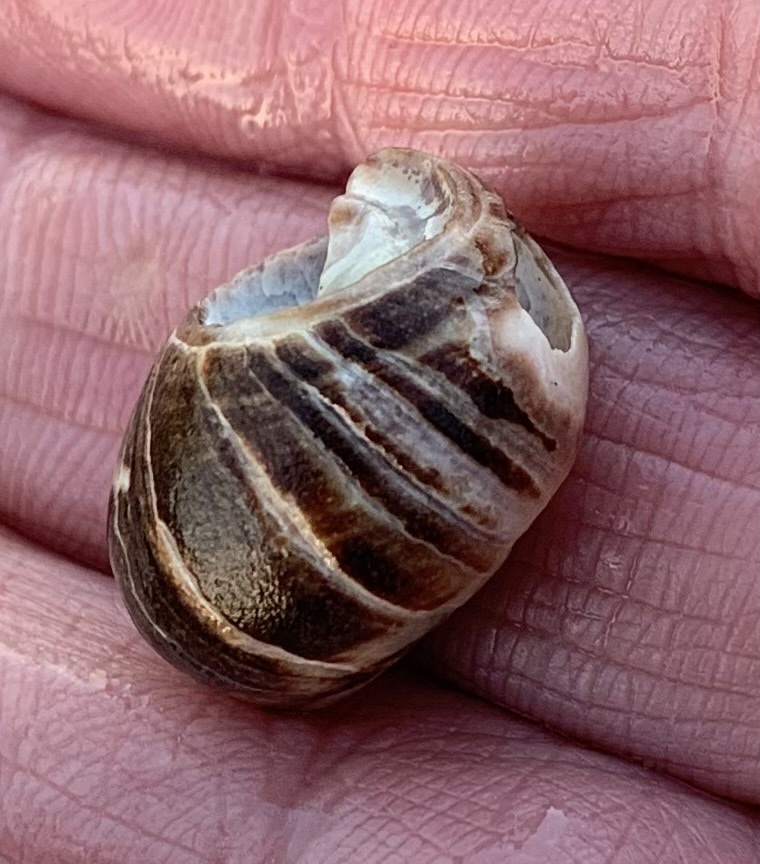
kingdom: Animalia
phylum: Mollusca
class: Gastropoda
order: Littorinimorpha
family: Littorinidae
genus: Littorina
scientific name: Littorina littorea
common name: Common periwinkle
